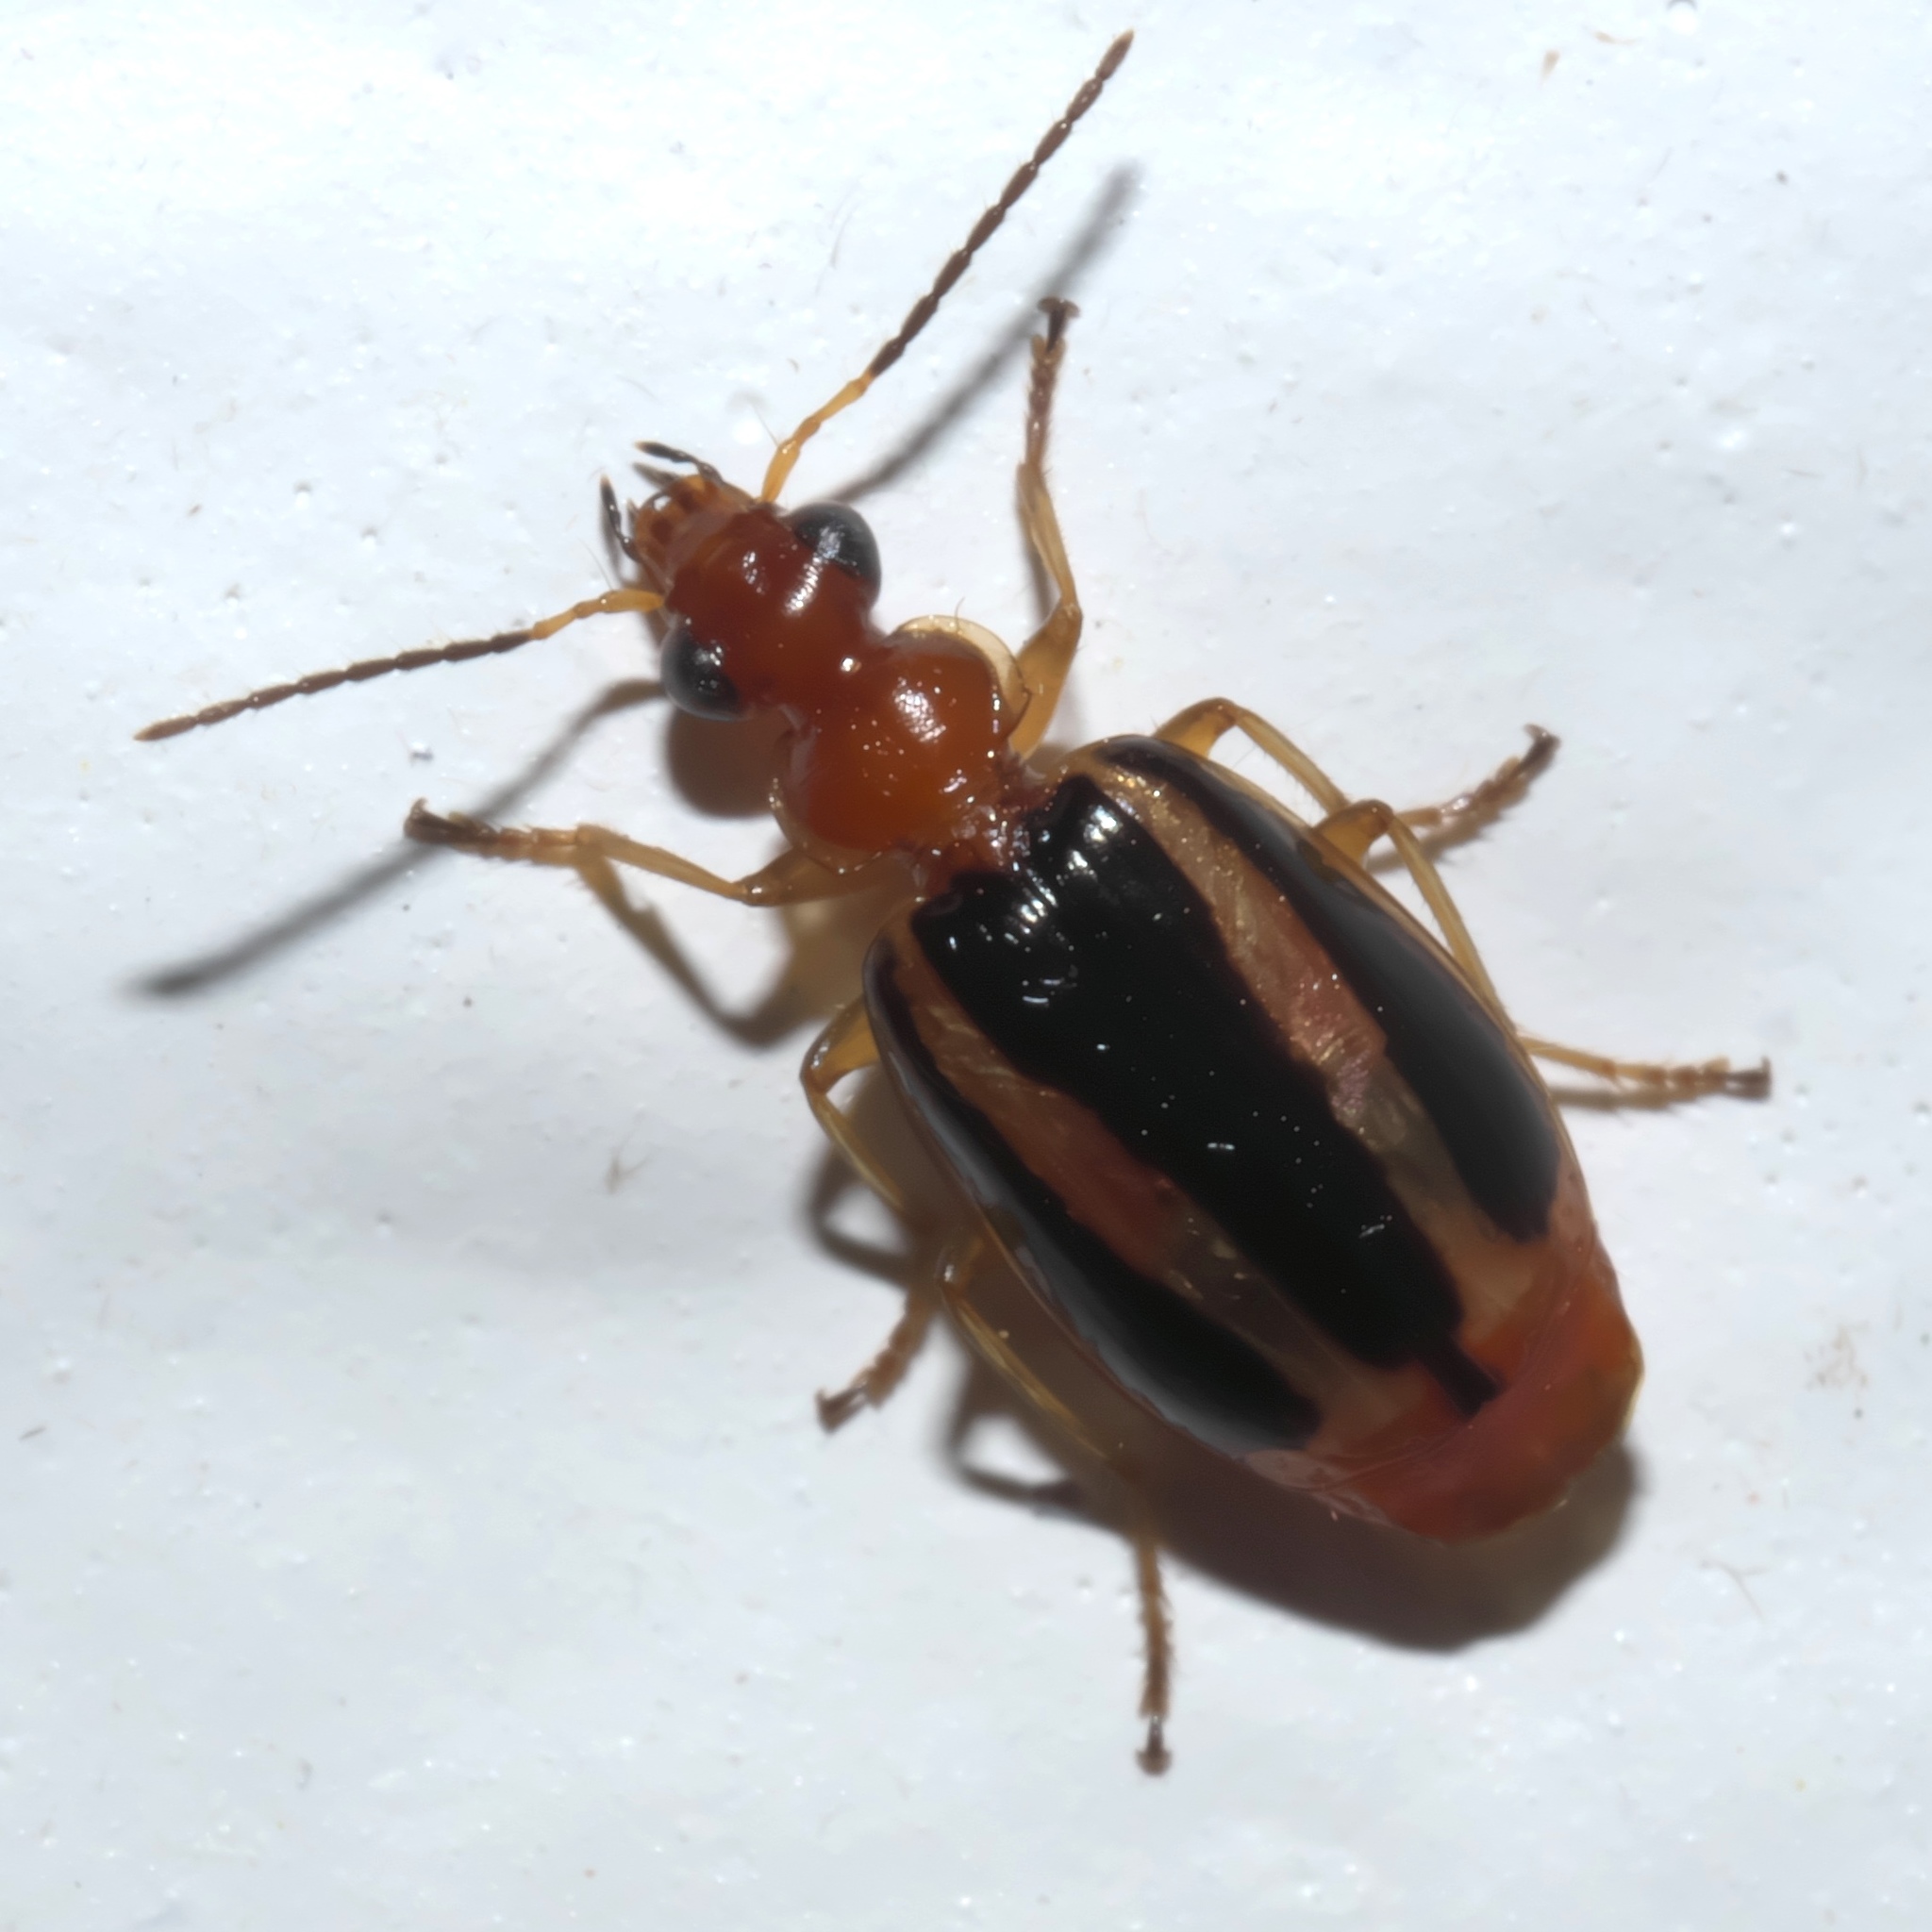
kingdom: Animalia
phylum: Arthropoda
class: Insecta
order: Coleoptera
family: Carabidae
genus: Lebia
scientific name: Lebia solea
